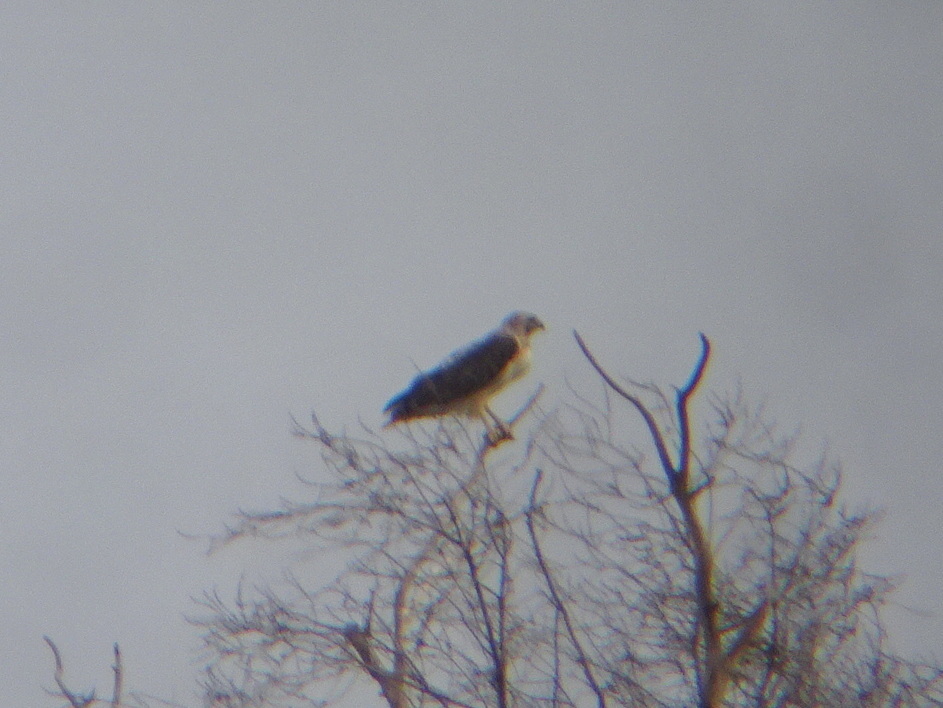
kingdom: Animalia
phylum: Chordata
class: Aves
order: Accipitriformes
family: Accipitridae
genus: Buteo
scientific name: Buteo jamaicensis
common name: Red-tailed hawk
